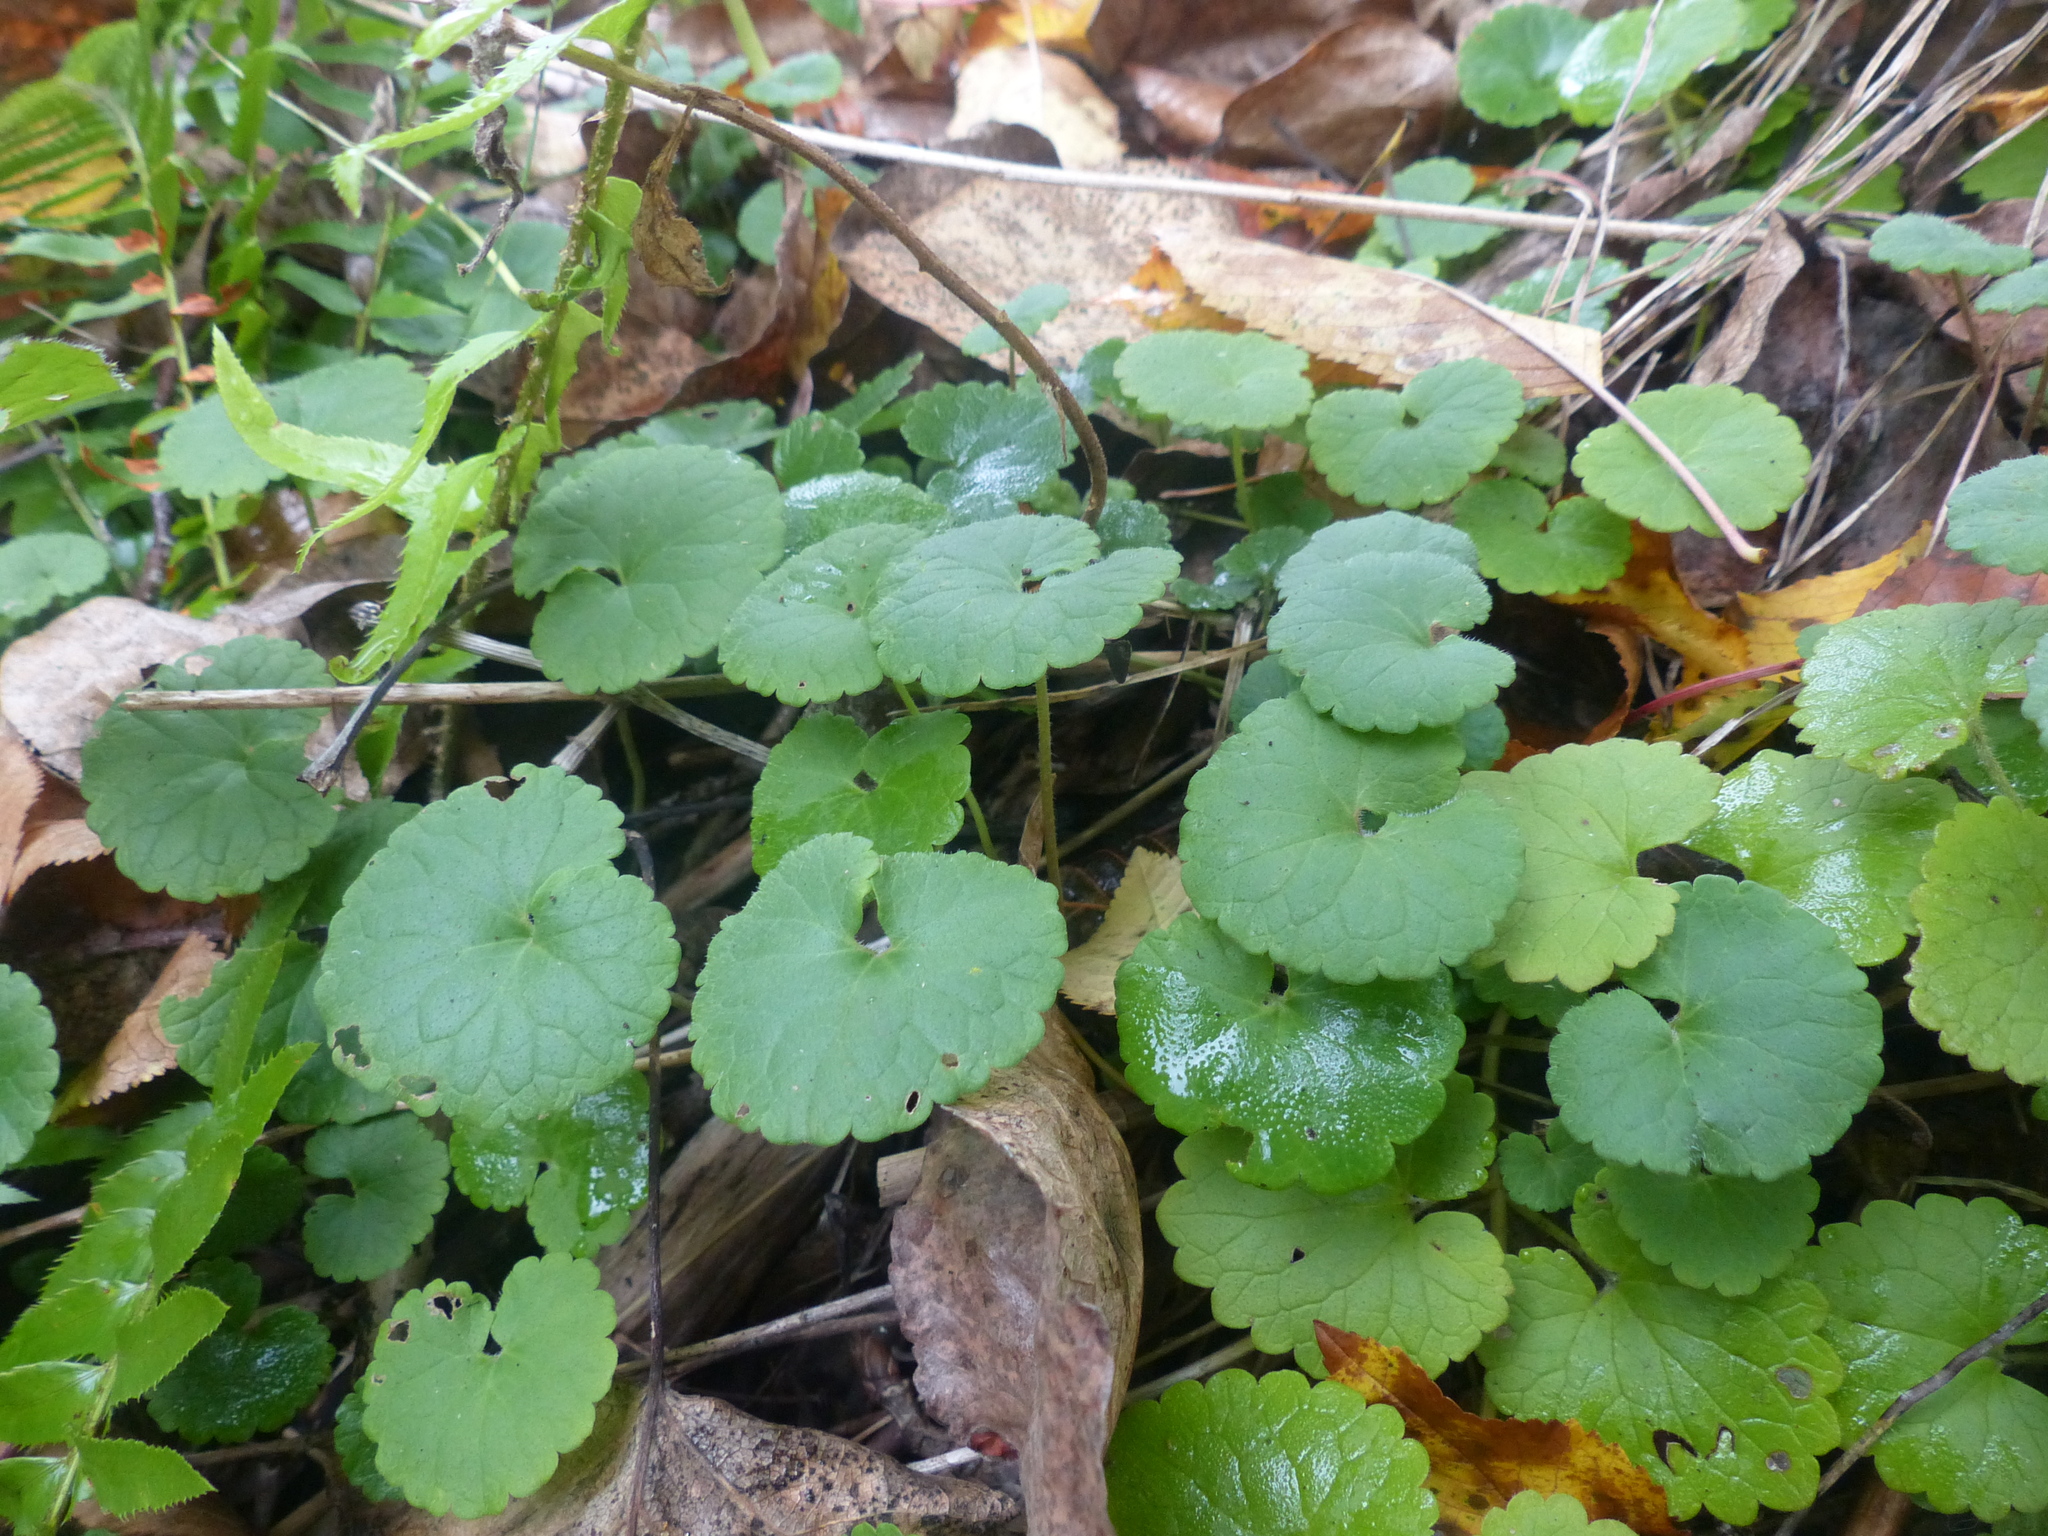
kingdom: Plantae
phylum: Tracheophyta
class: Magnoliopsida
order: Lamiales
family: Lamiaceae
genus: Glechoma
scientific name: Glechoma hederacea
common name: Ground ivy
